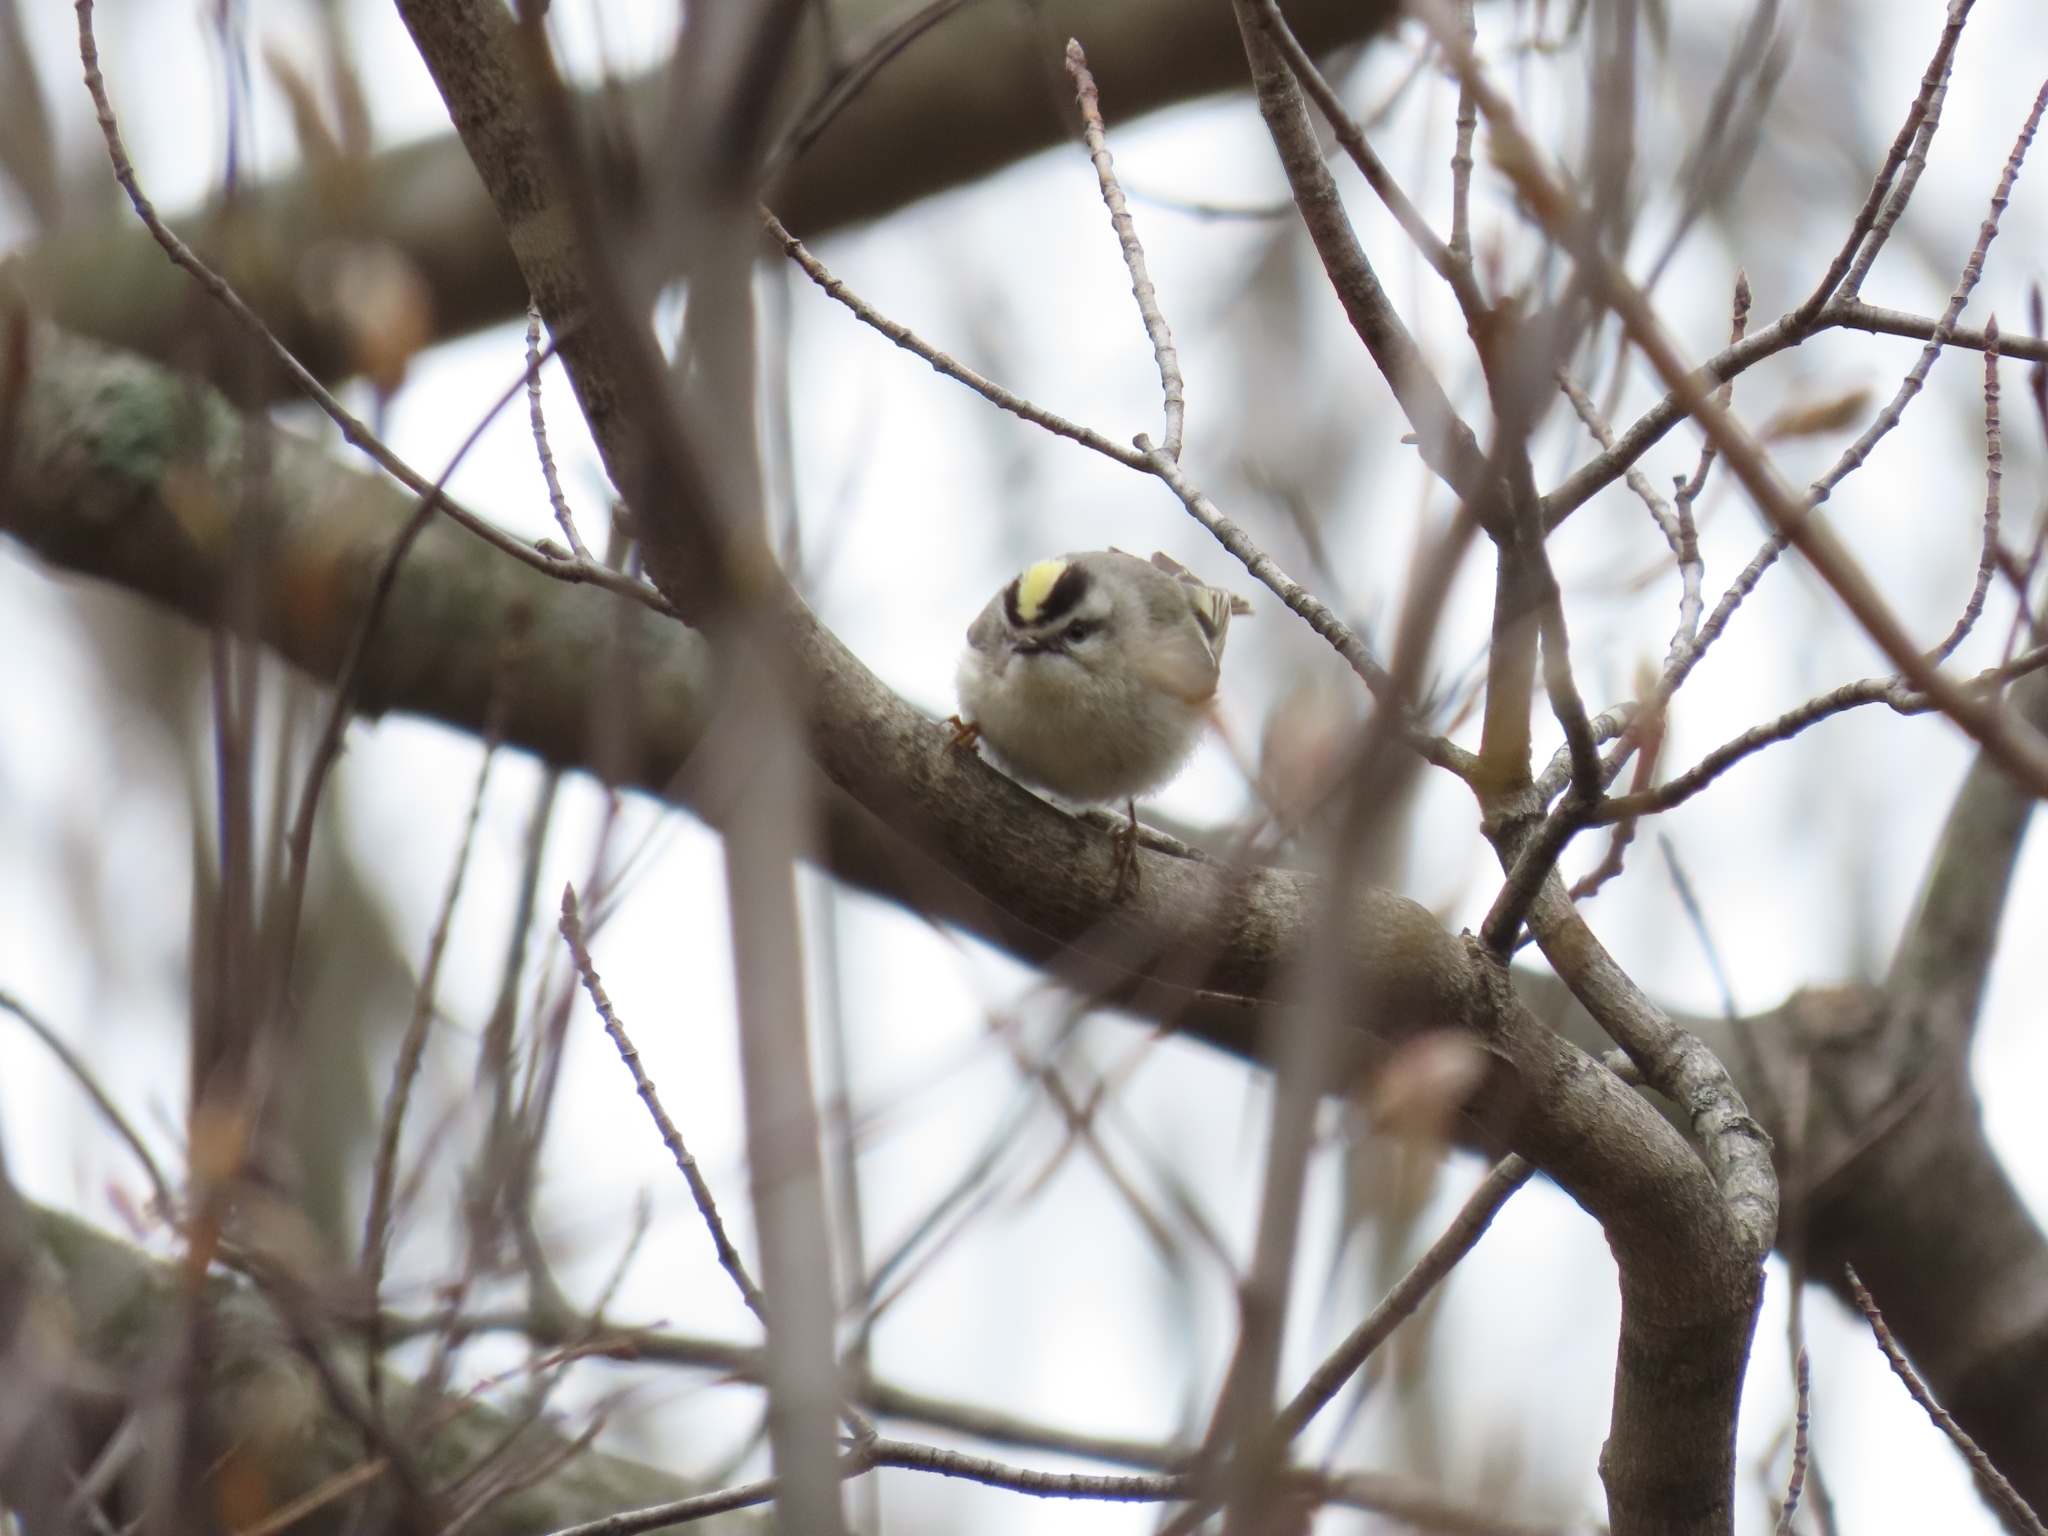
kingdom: Animalia
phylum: Chordata
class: Aves
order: Passeriformes
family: Regulidae
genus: Regulus
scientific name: Regulus satrapa
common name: Golden-crowned kinglet
